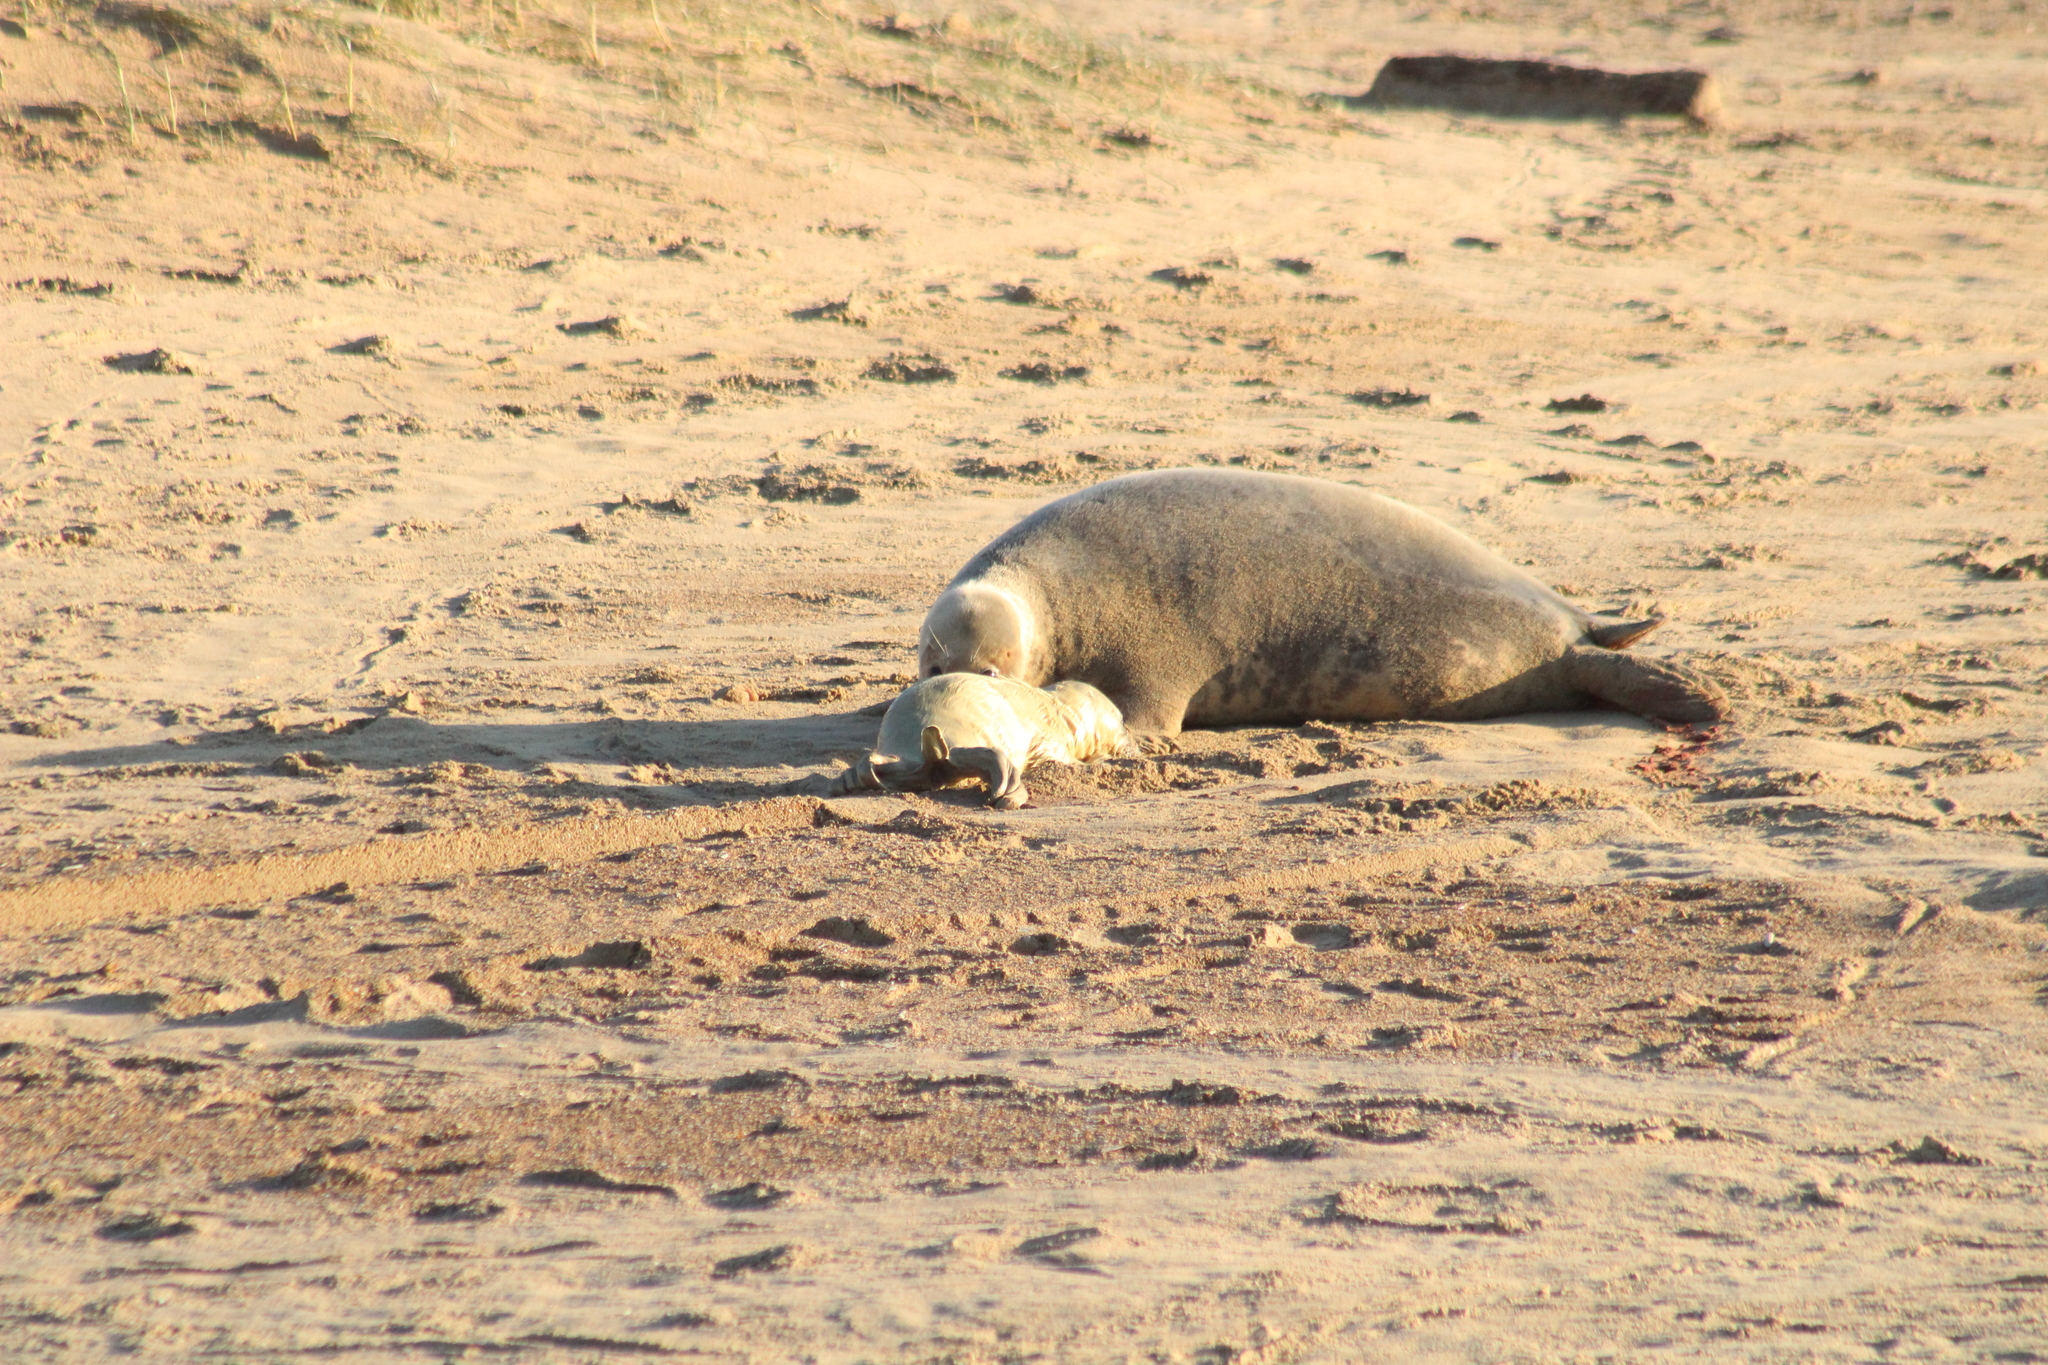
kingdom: Animalia
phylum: Chordata
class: Mammalia
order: Carnivora
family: Phocidae
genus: Halichoerus
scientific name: Halichoerus grypus
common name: Grey seal
